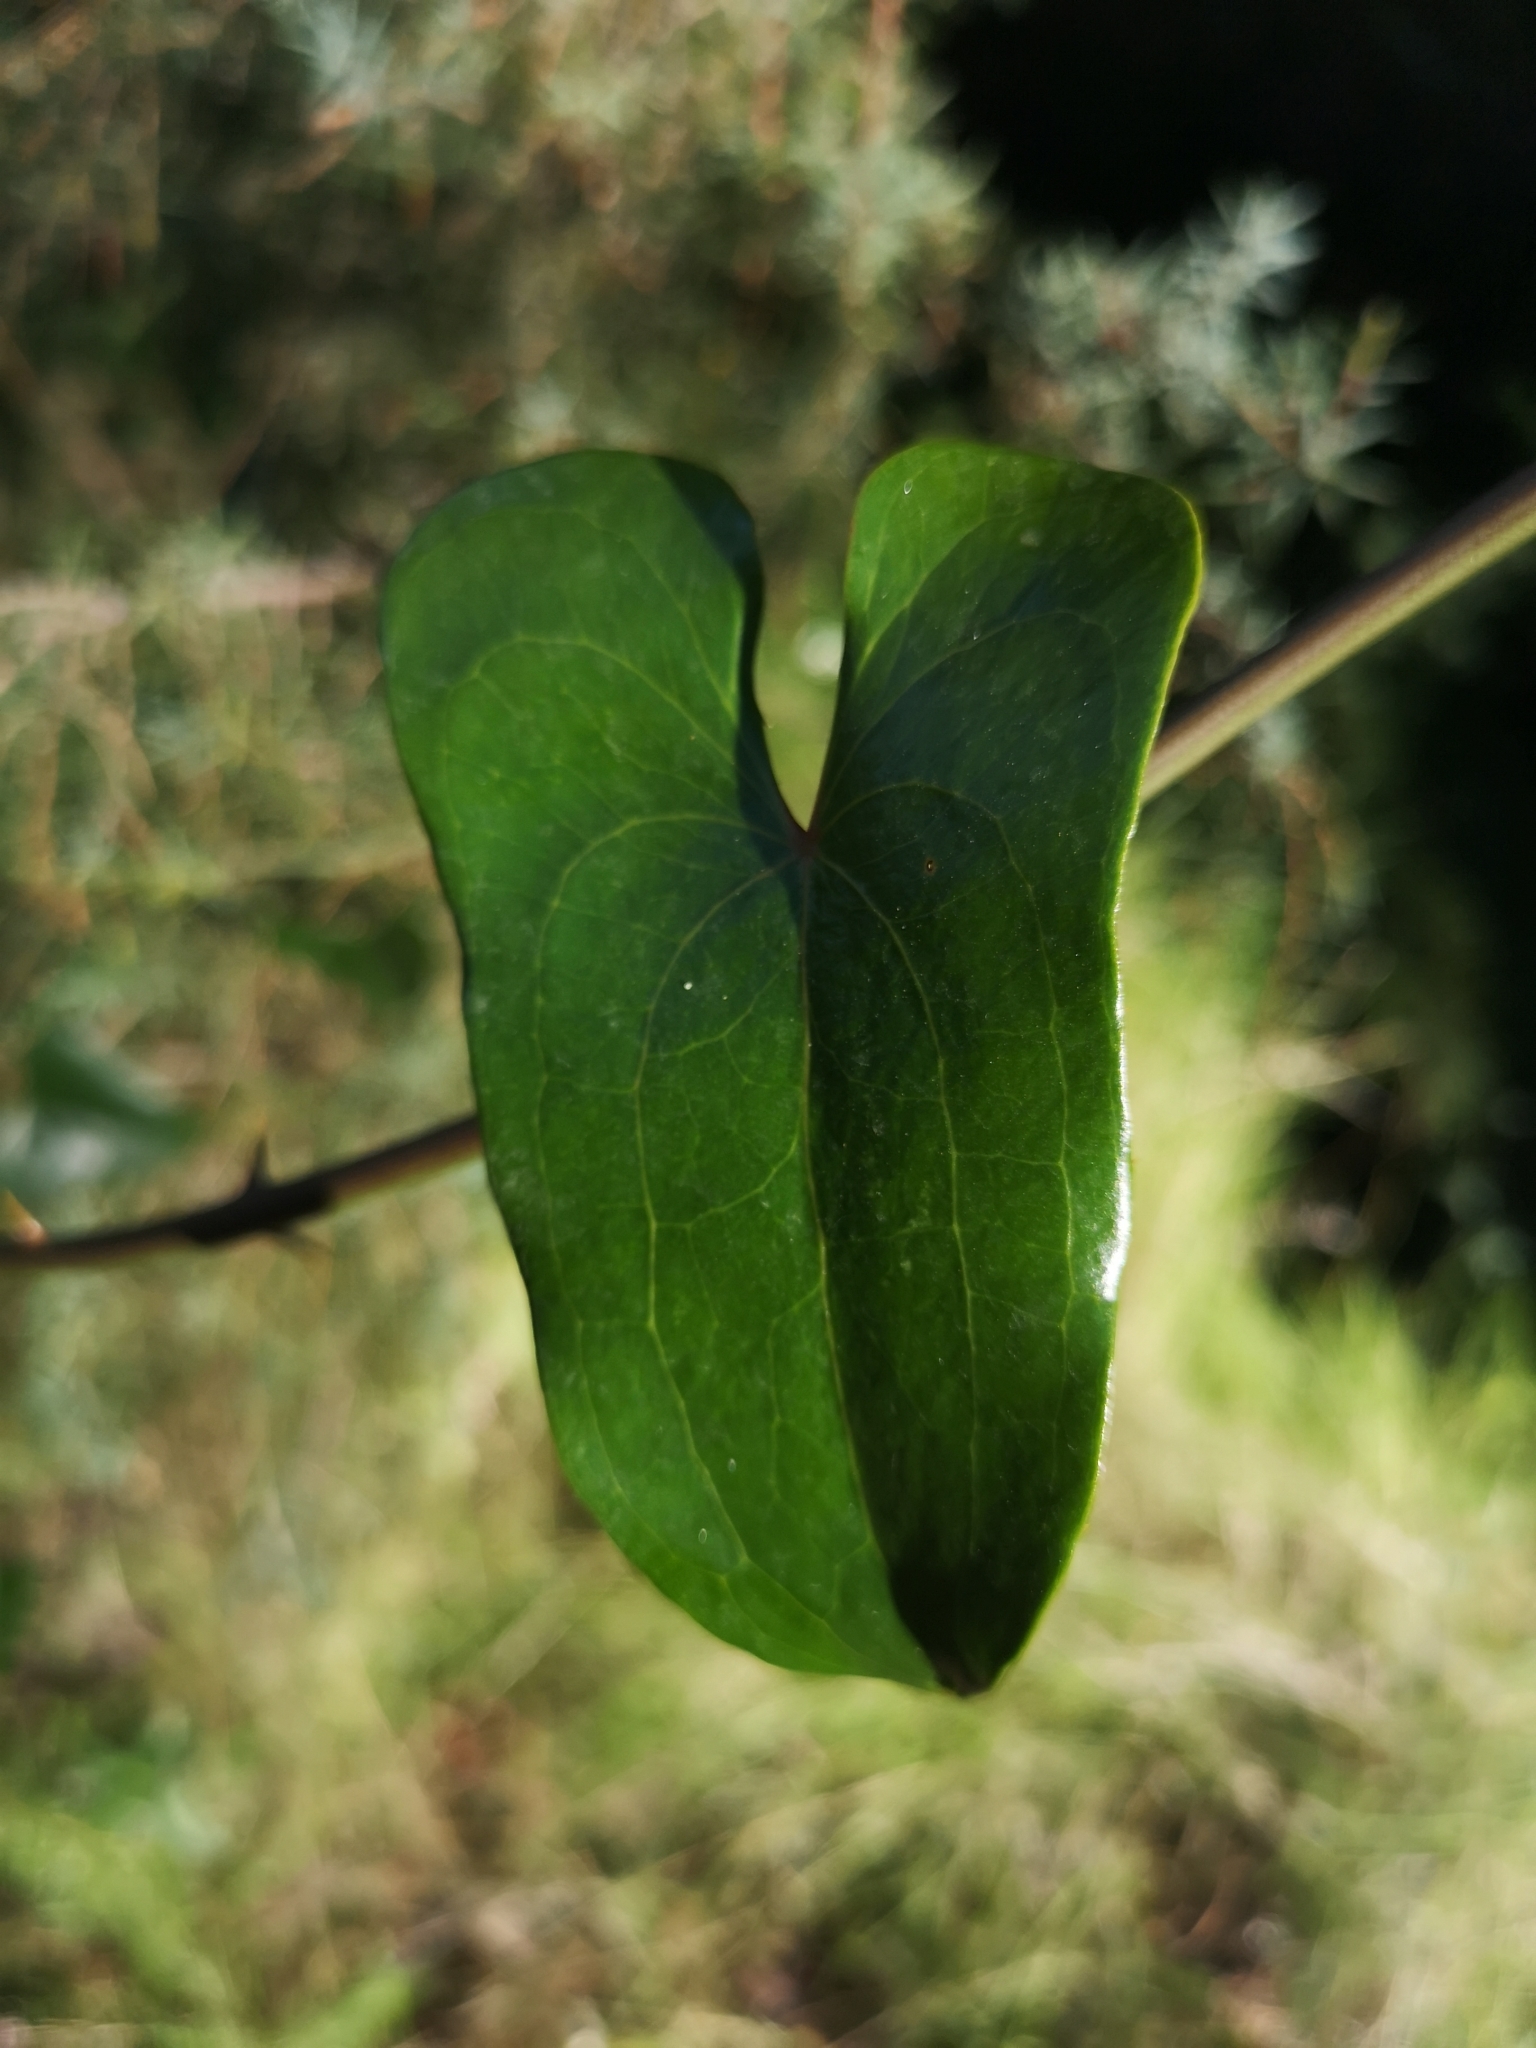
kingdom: Plantae
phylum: Tracheophyta
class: Liliopsida
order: Liliales
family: Smilacaceae
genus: Smilax
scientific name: Smilax aspera
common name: Common smilax
